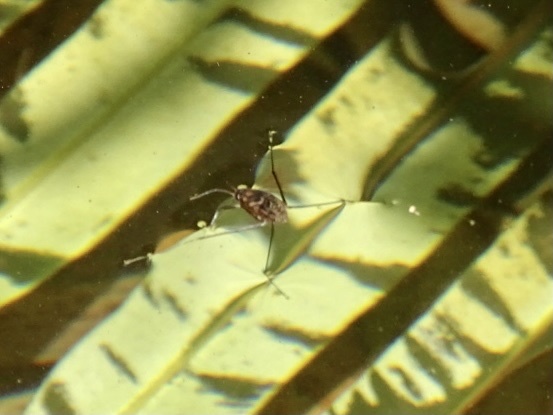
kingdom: Animalia
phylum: Arthropoda
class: Insecta
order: Hemiptera
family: Gerridae
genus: Metrocoris
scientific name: Metrocoris lituratus
